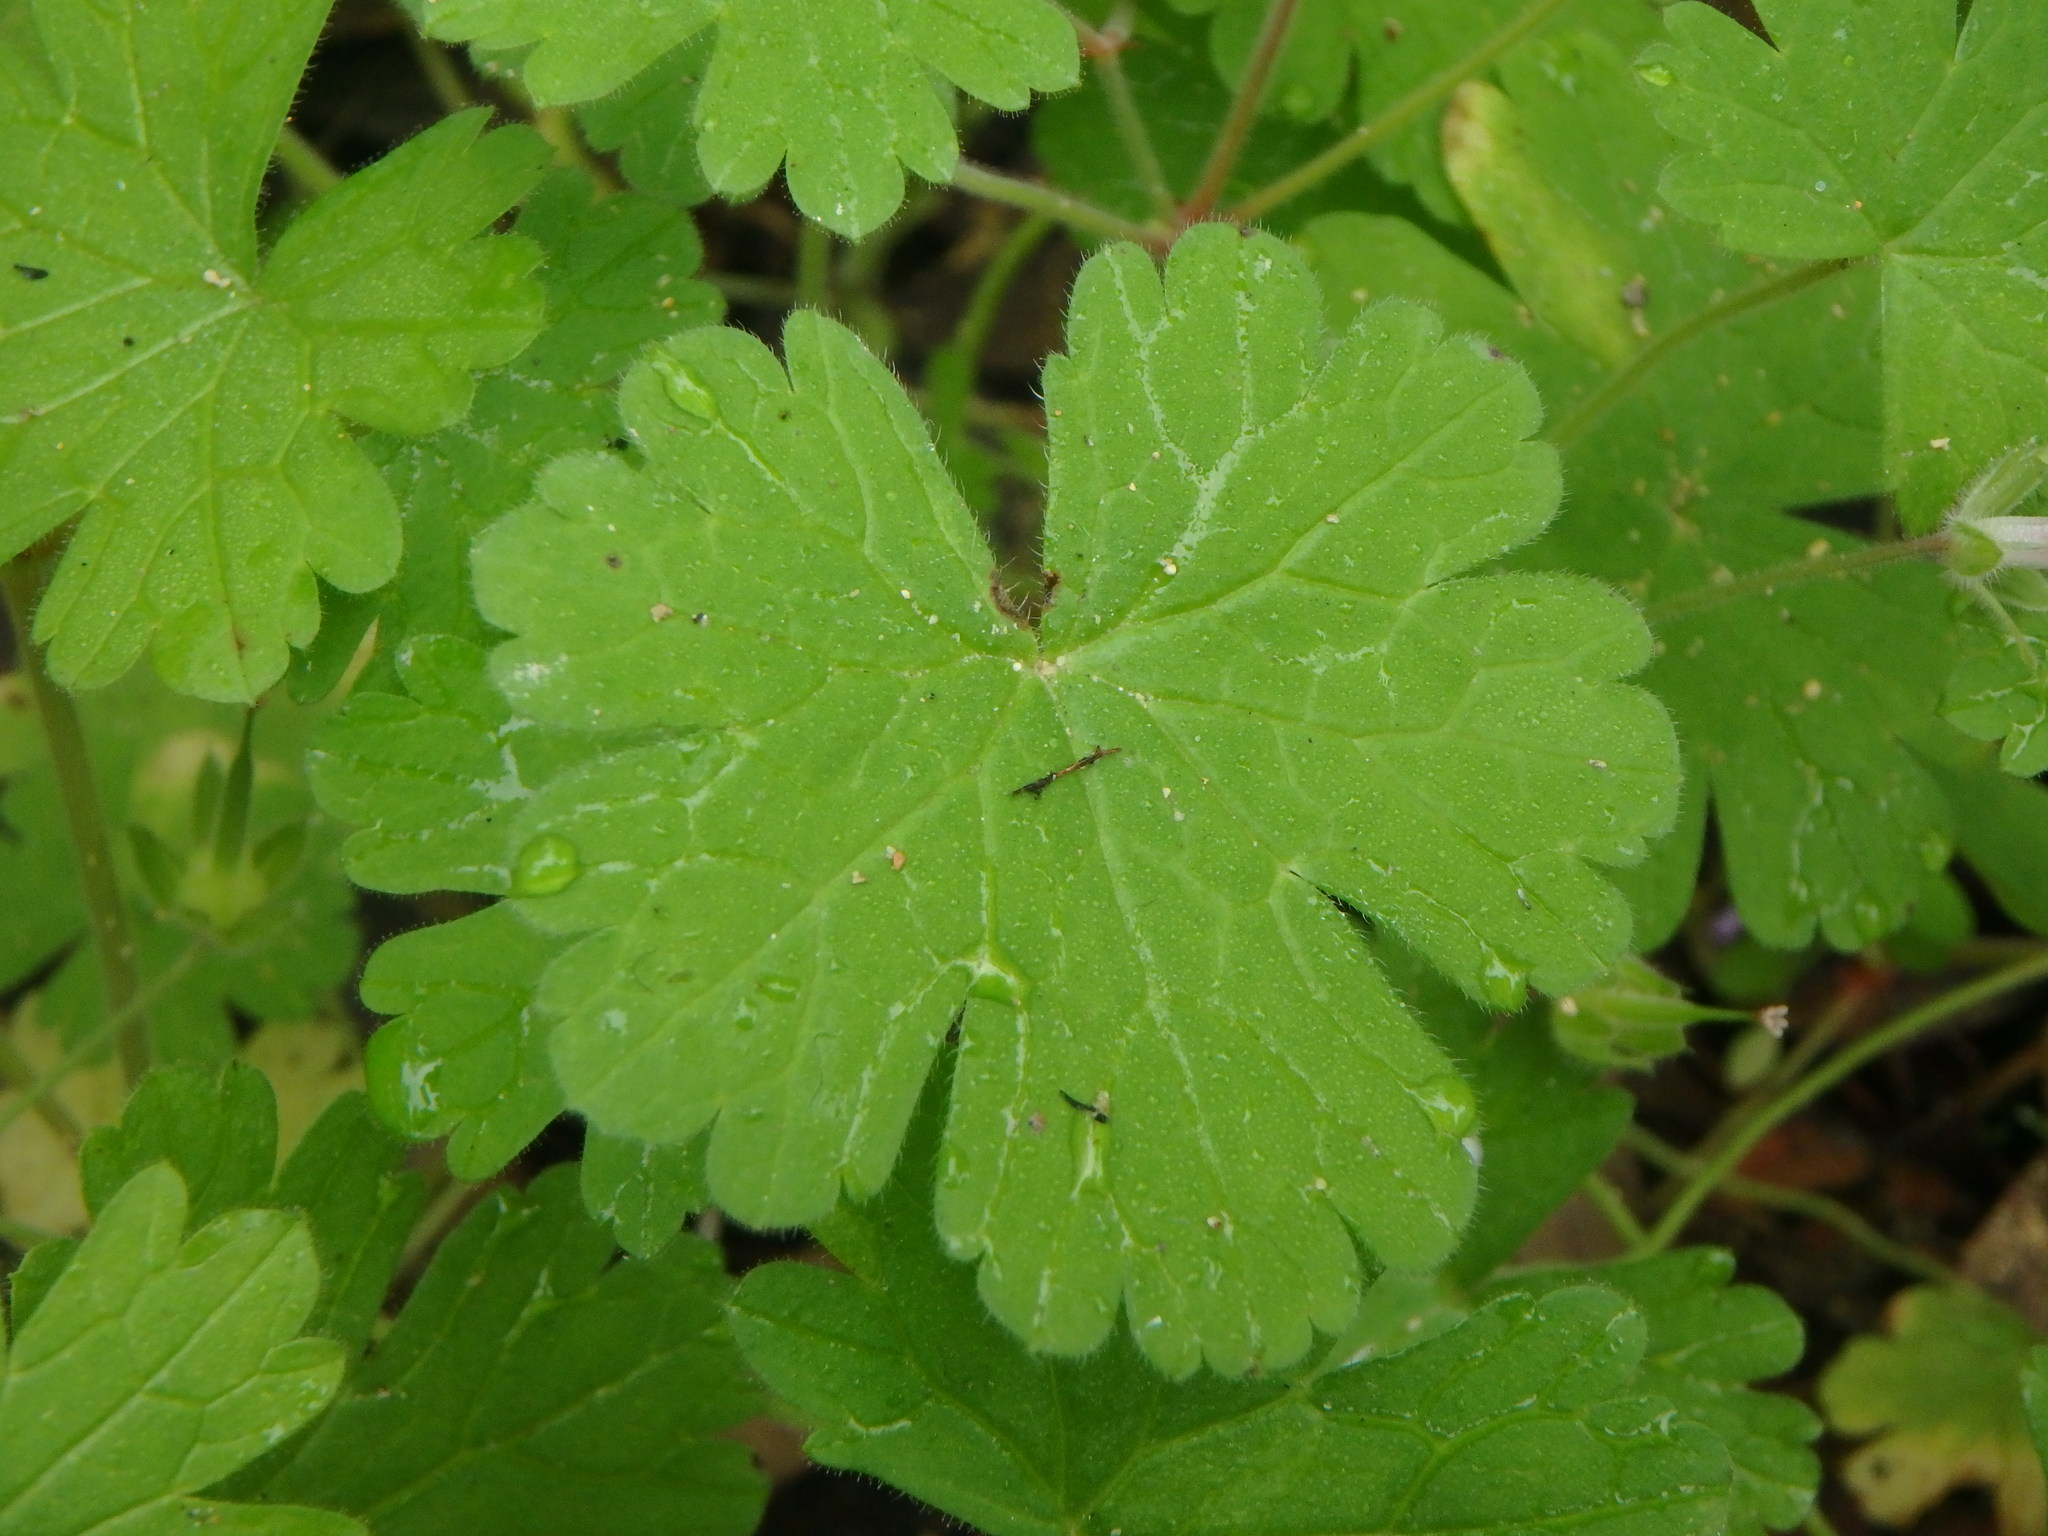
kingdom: Plantae
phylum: Tracheophyta
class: Magnoliopsida
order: Geraniales
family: Geraniaceae
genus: Geranium
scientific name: Geranium rotundifolium
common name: Round-leaved crane's-bill
